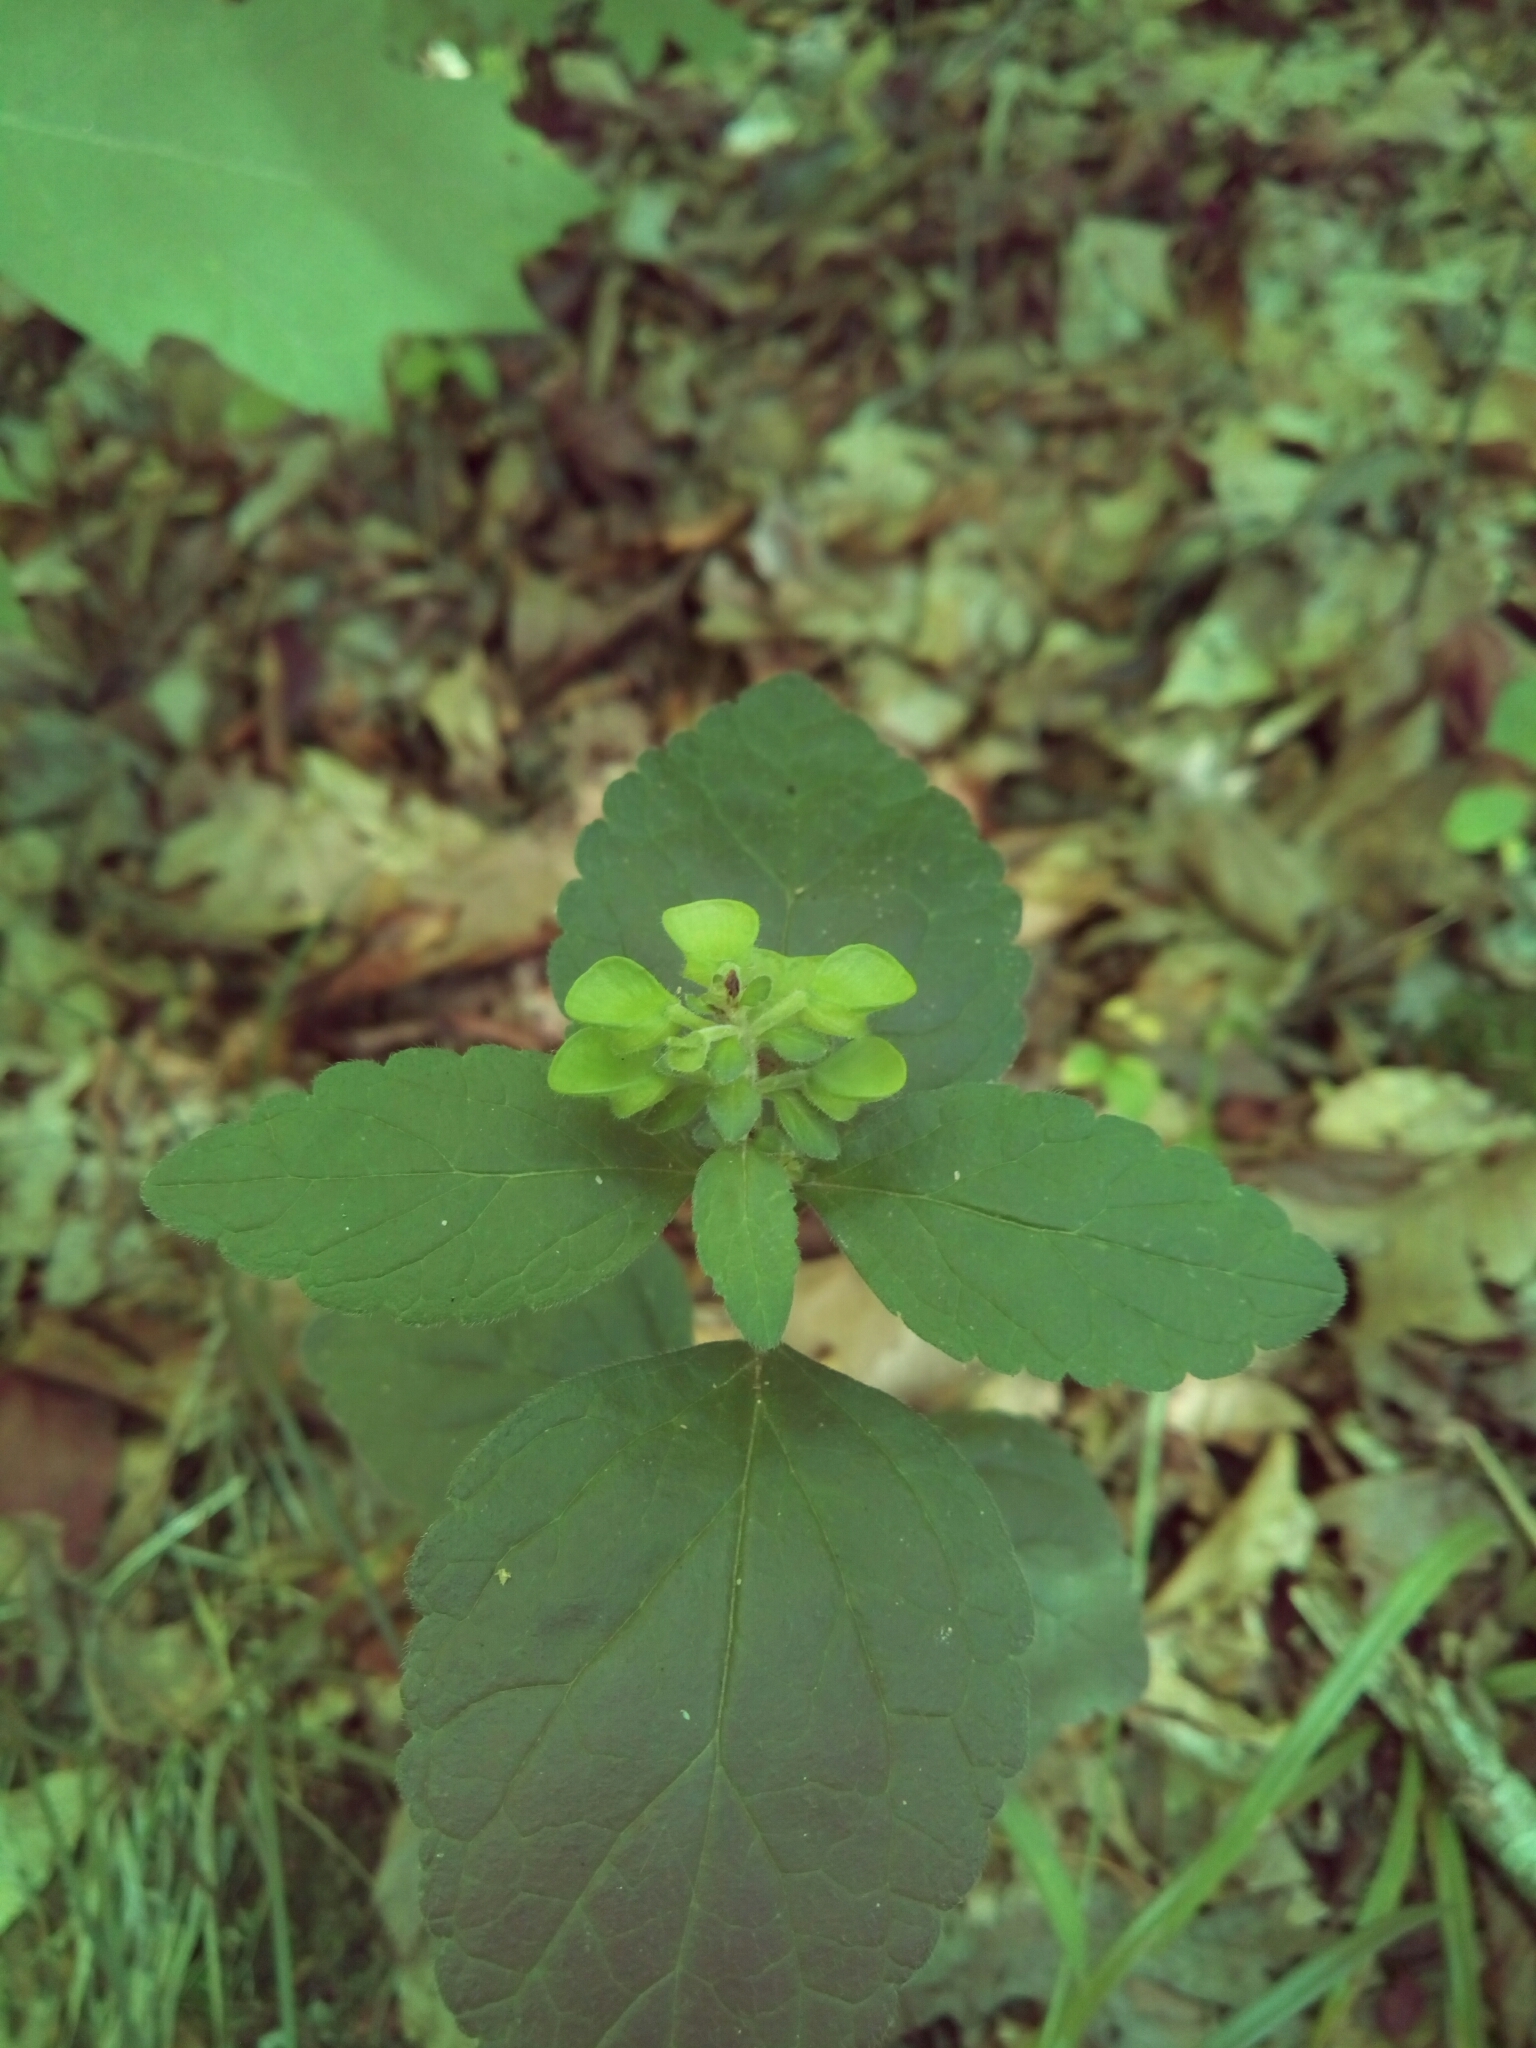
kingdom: Plantae
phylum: Tracheophyta
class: Magnoliopsida
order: Lamiales
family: Lamiaceae
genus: Scutellaria
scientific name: Scutellaria elliptica
